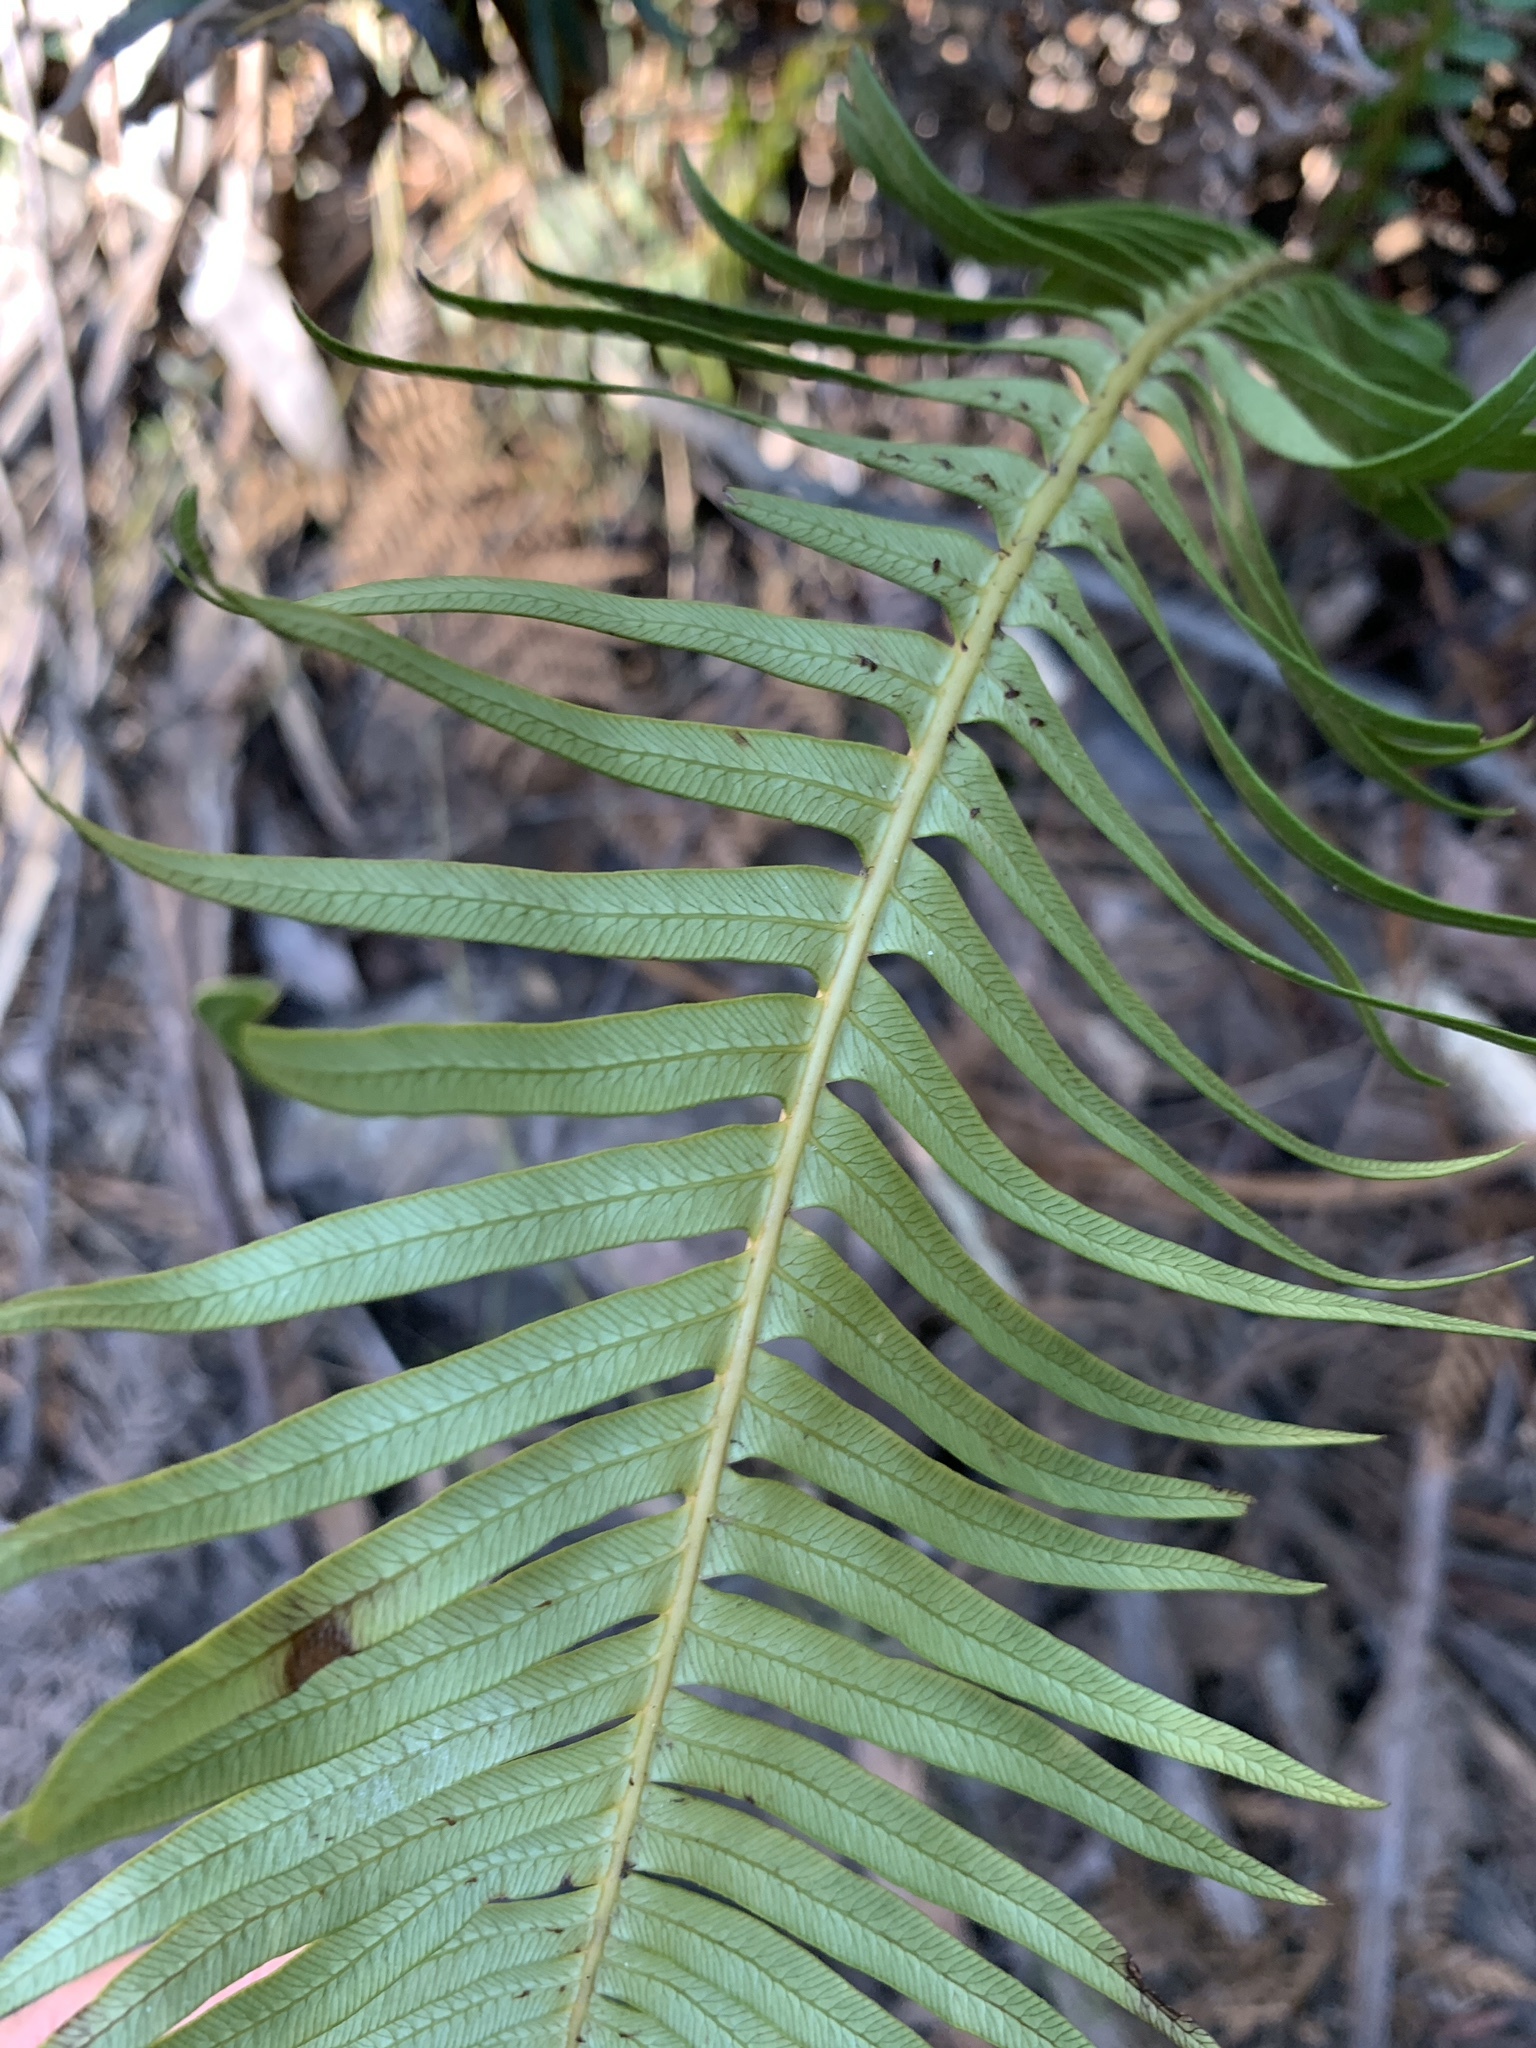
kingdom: Plantae
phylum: Tracheophyta
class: Polypodiopsida
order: Polypodiales
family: Blechnaceae
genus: Lomaria
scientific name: Lomaria nuda
